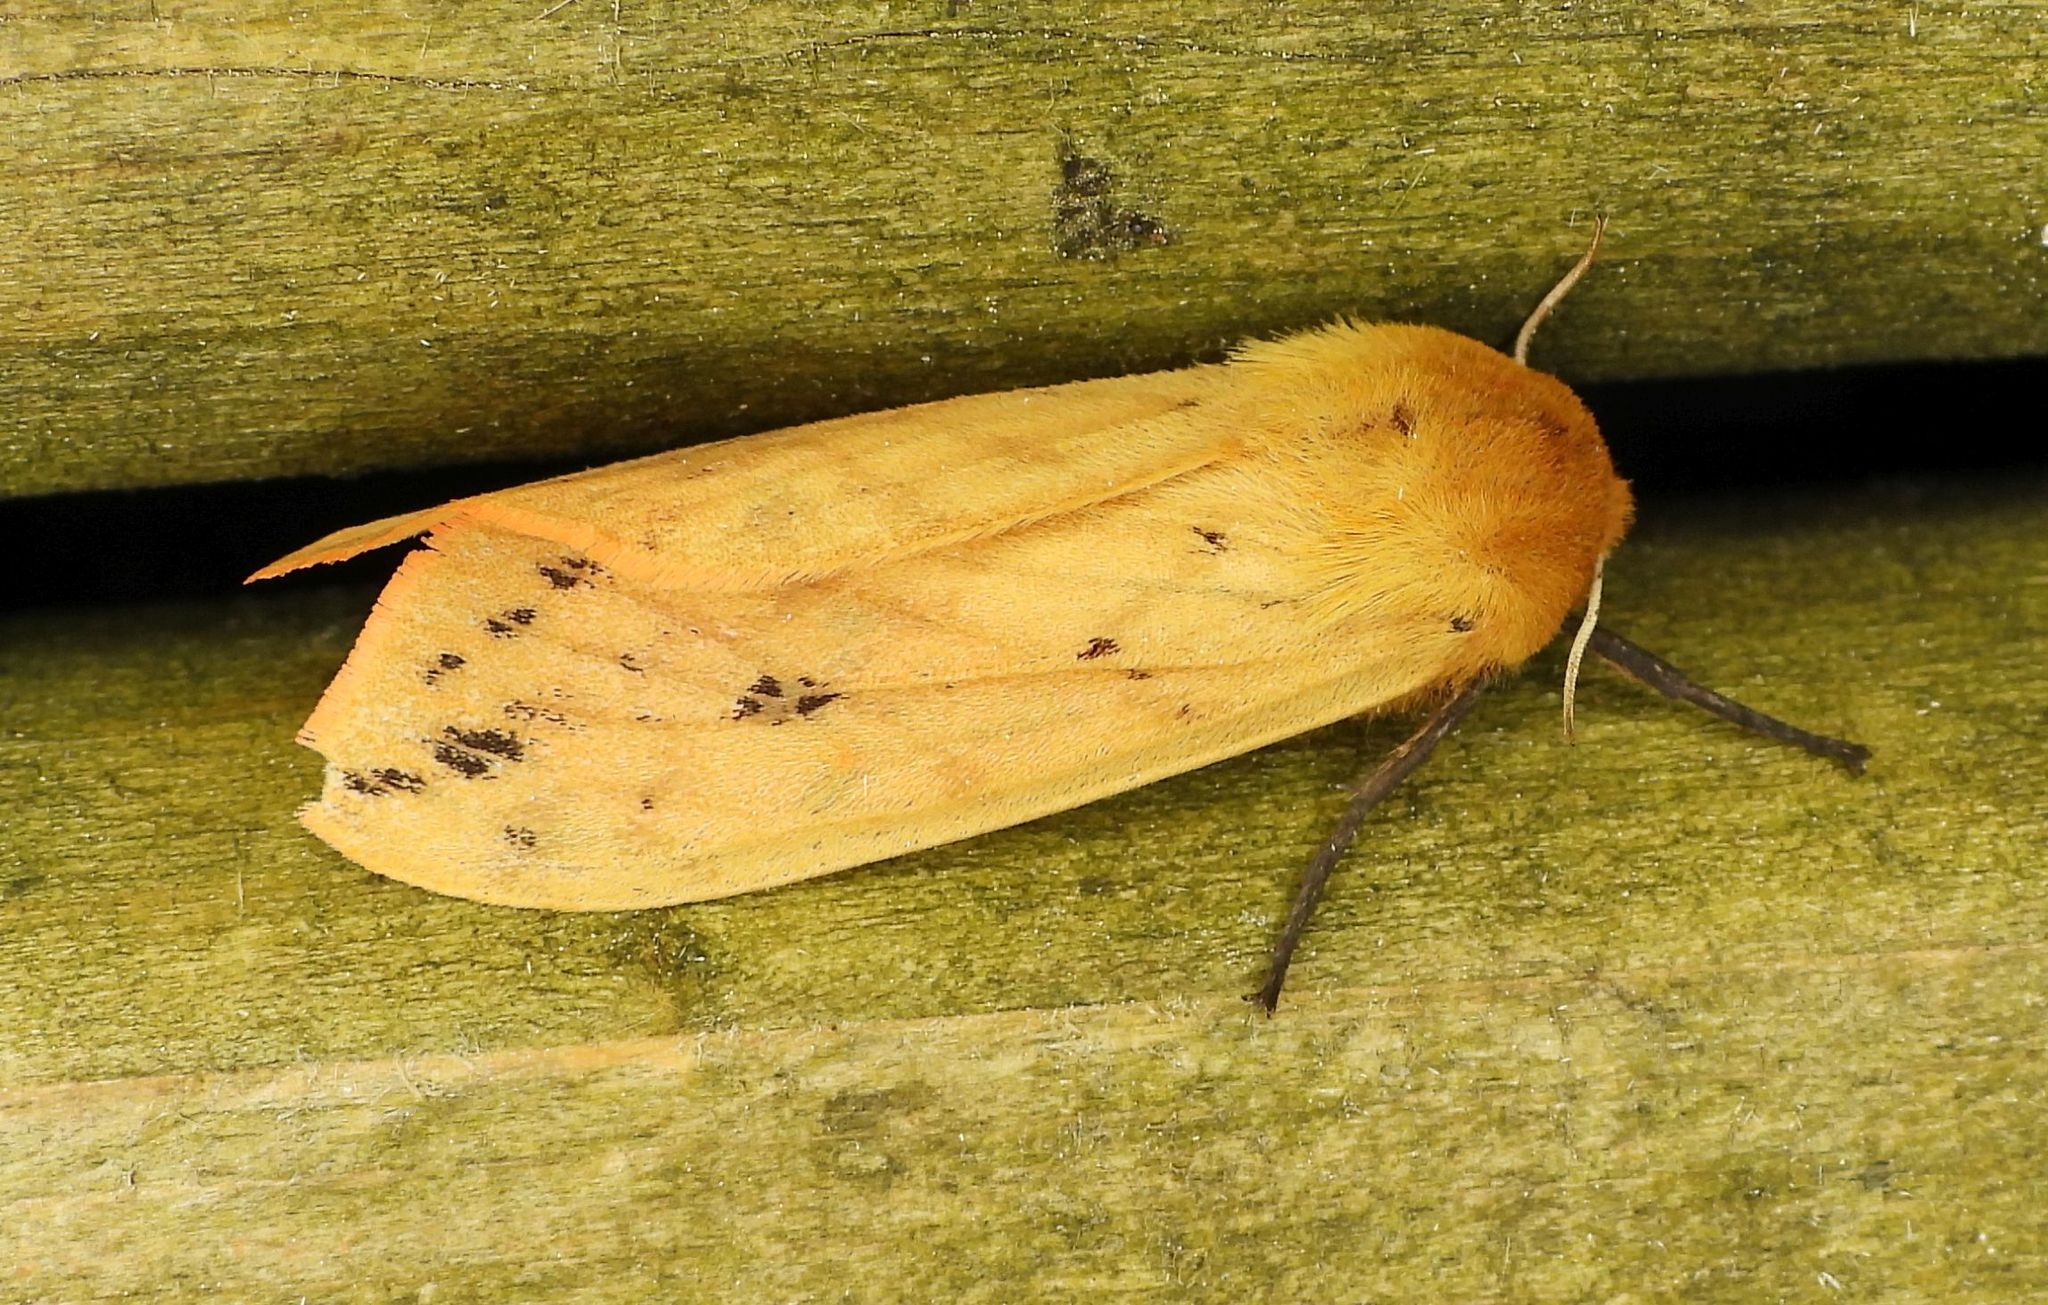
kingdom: Animalia
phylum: Arthropoda
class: Insecta
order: Lepidoptera
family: Erebidae
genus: Pyrrharctia
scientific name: Pyrrharctia isabella
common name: Isabella tiger moth
